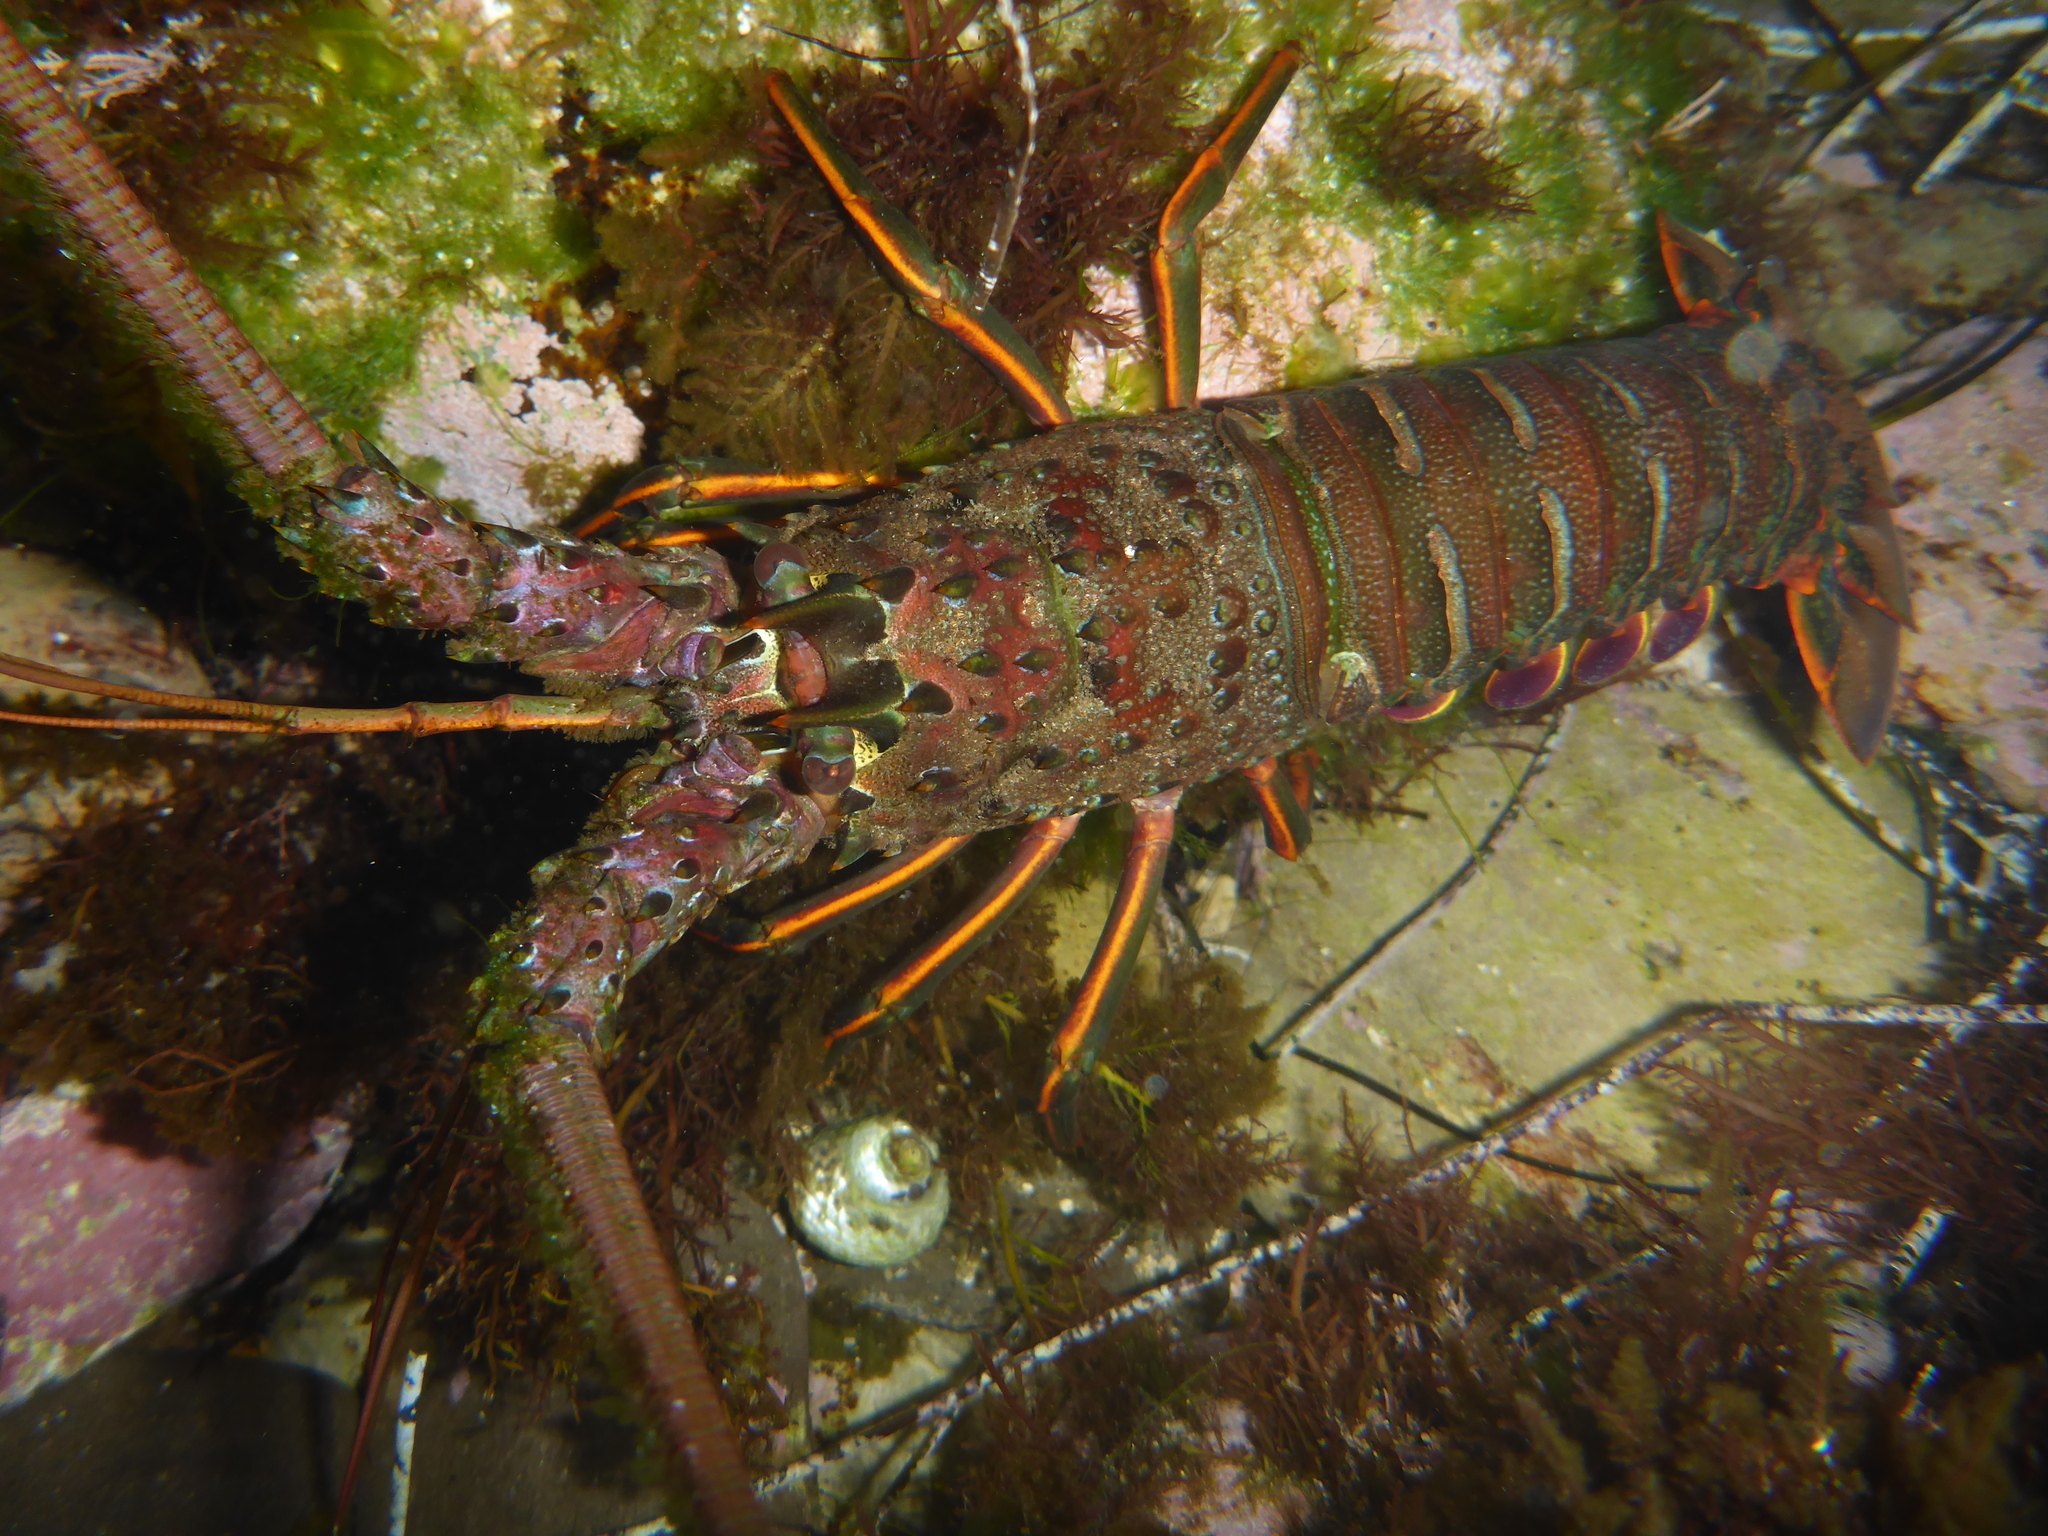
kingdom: Animalia
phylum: Arthropoda
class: Malacostraca
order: Decapoda
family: Palinuridae
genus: Panulirus
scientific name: Panulirus interruptus
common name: California spiny lobster
